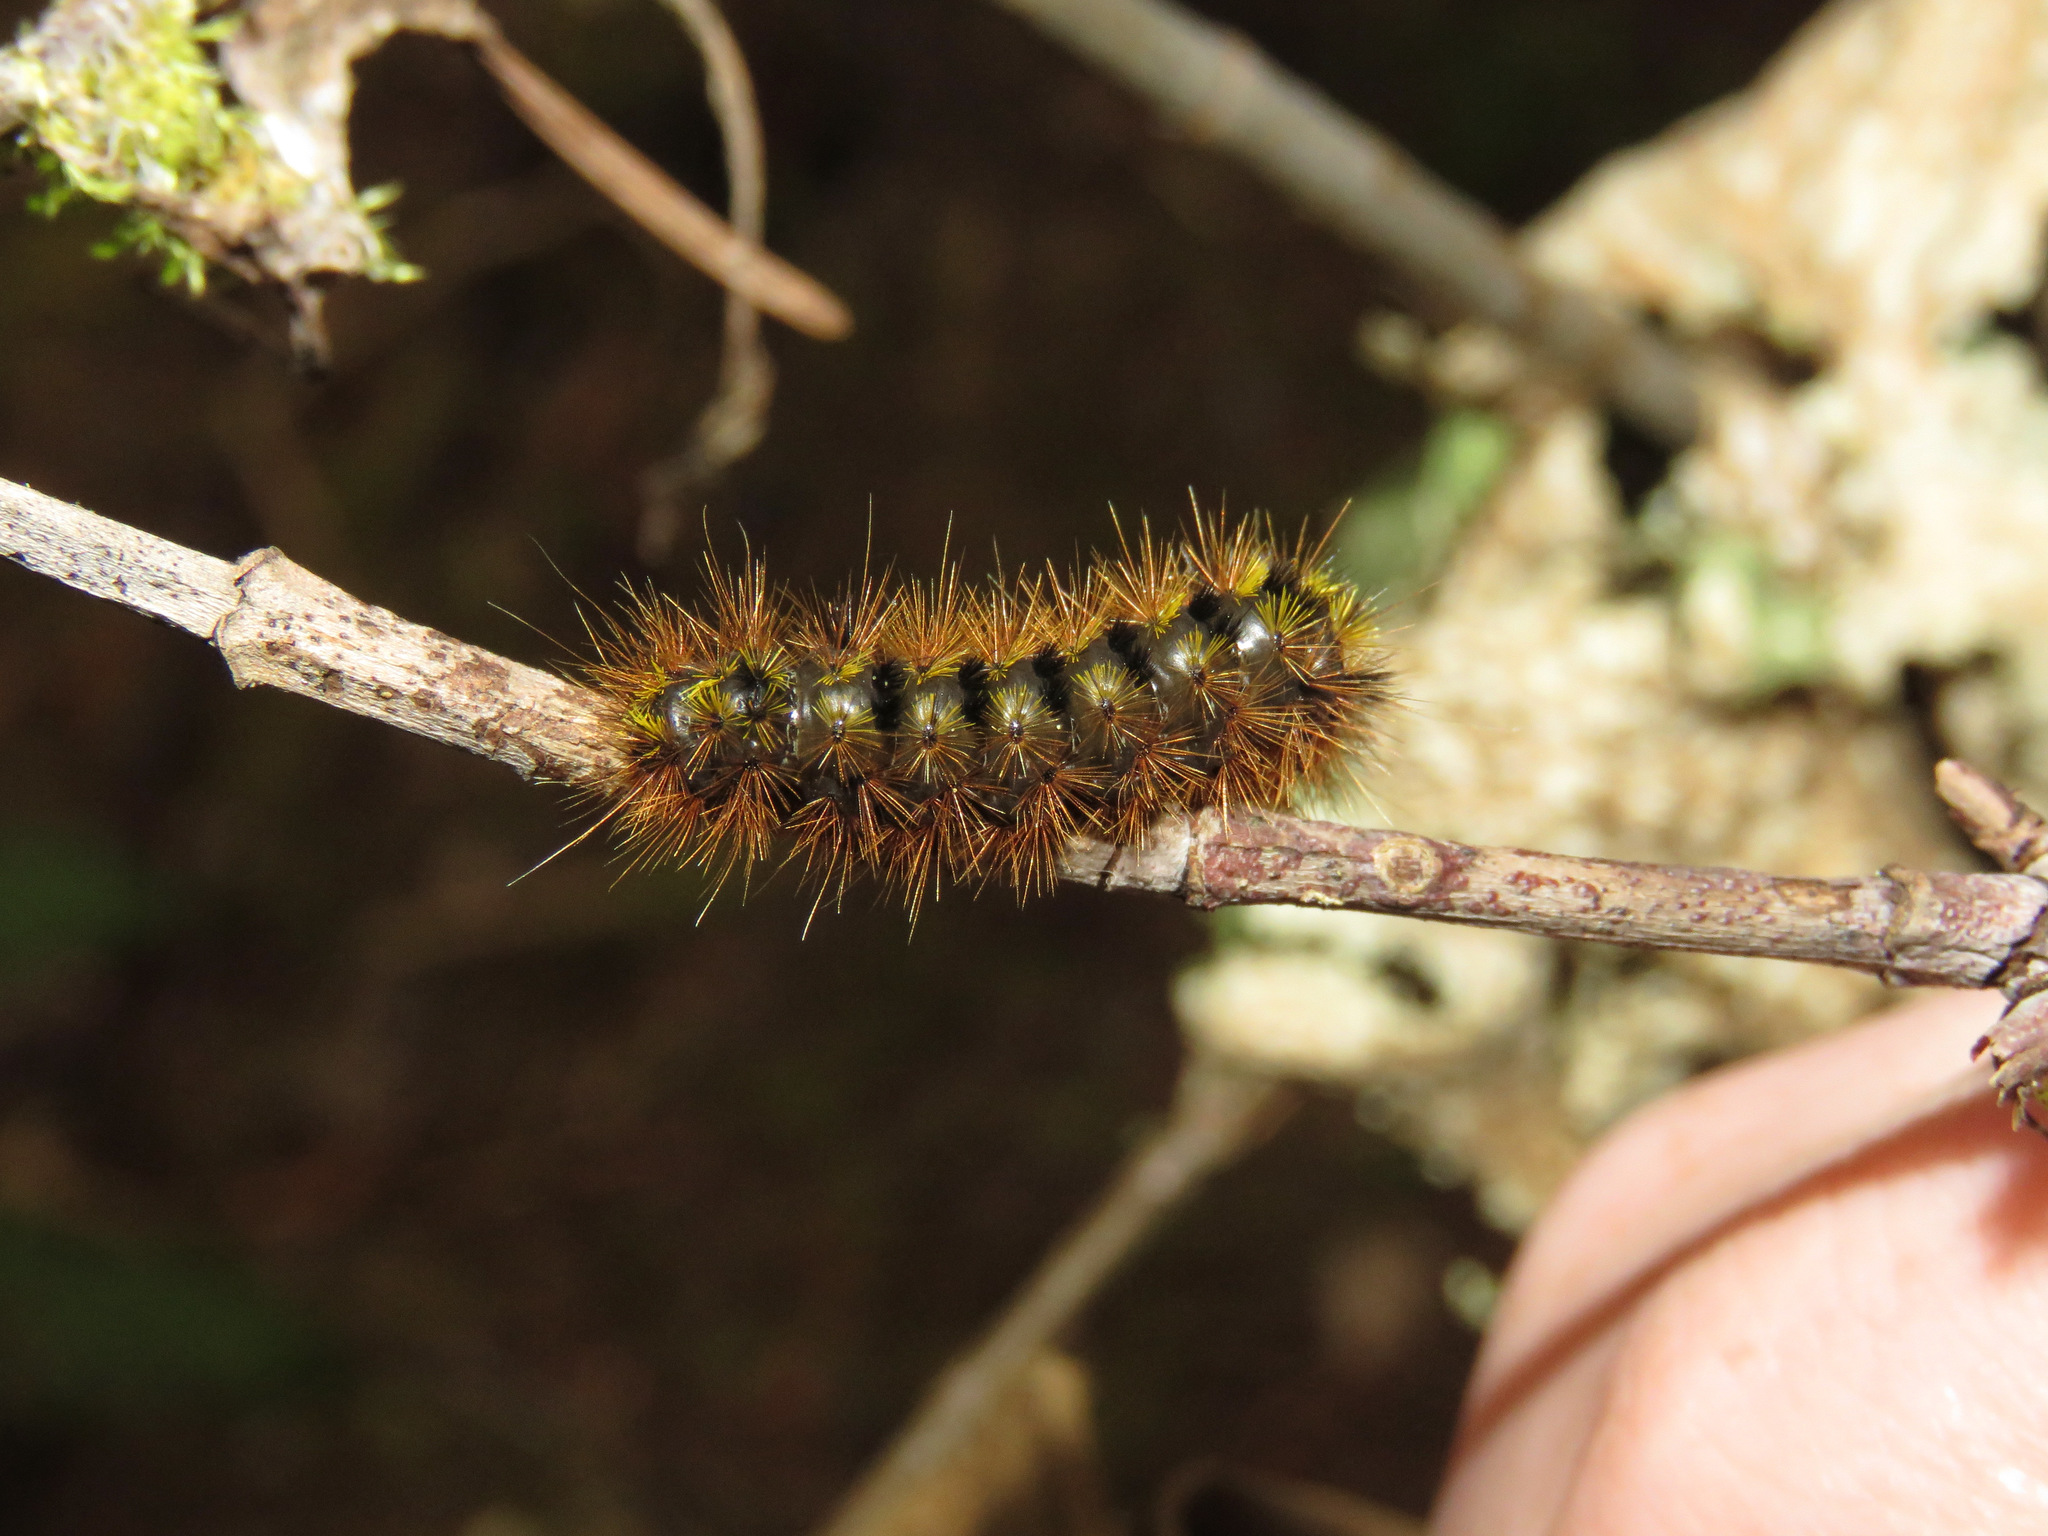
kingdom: Animalia
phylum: Arthropoda
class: Insecta
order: Lepidoptera
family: Erebidae
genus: Lophocampa
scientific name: Lophocampa argentata
